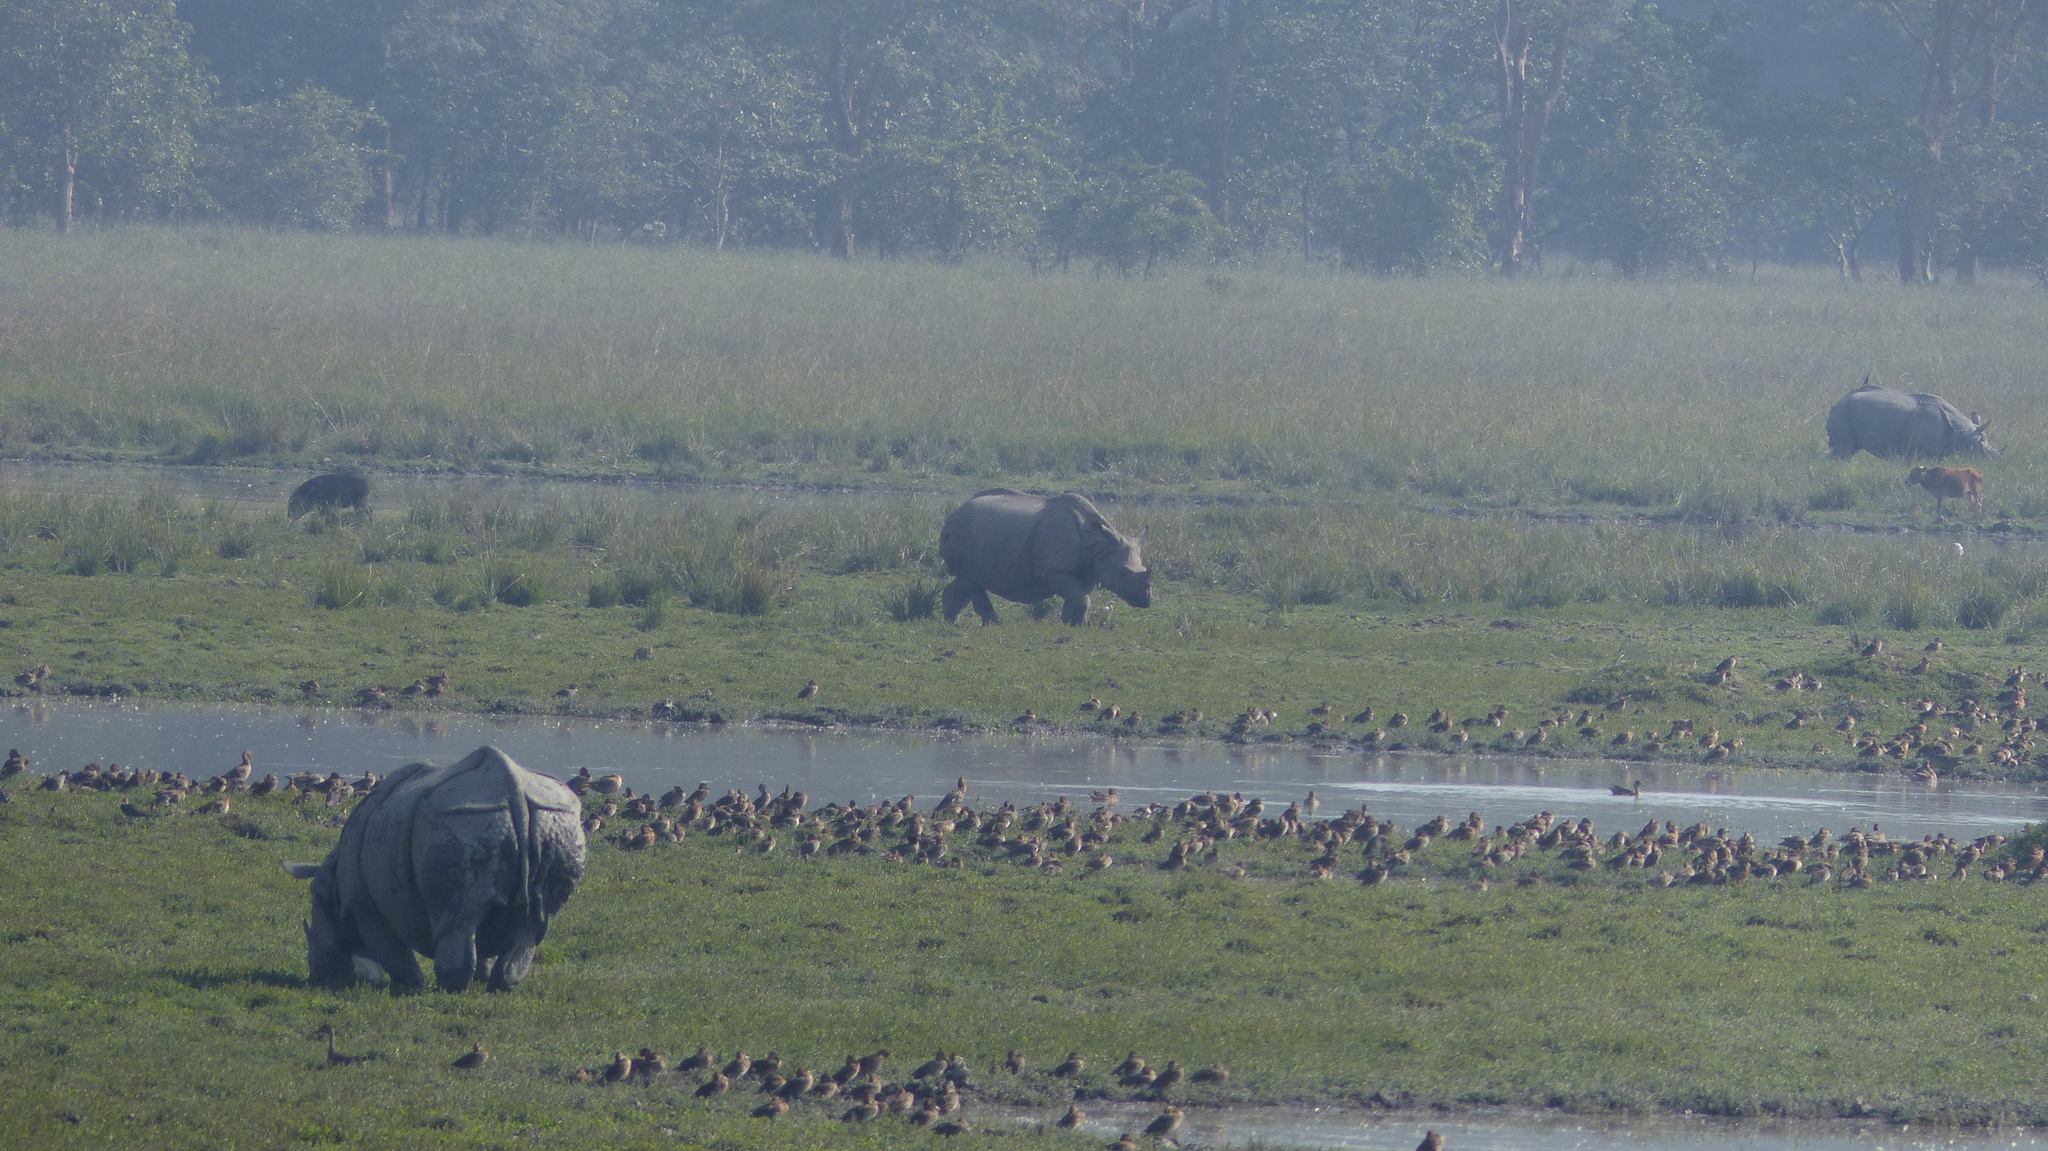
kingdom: Animalia
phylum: Chordata
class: Mammalia
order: Perissodactyla
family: Rhinocerotidae
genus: Rhinoceros
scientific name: Rhinoceros unicornis
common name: Indian rhinoceros
